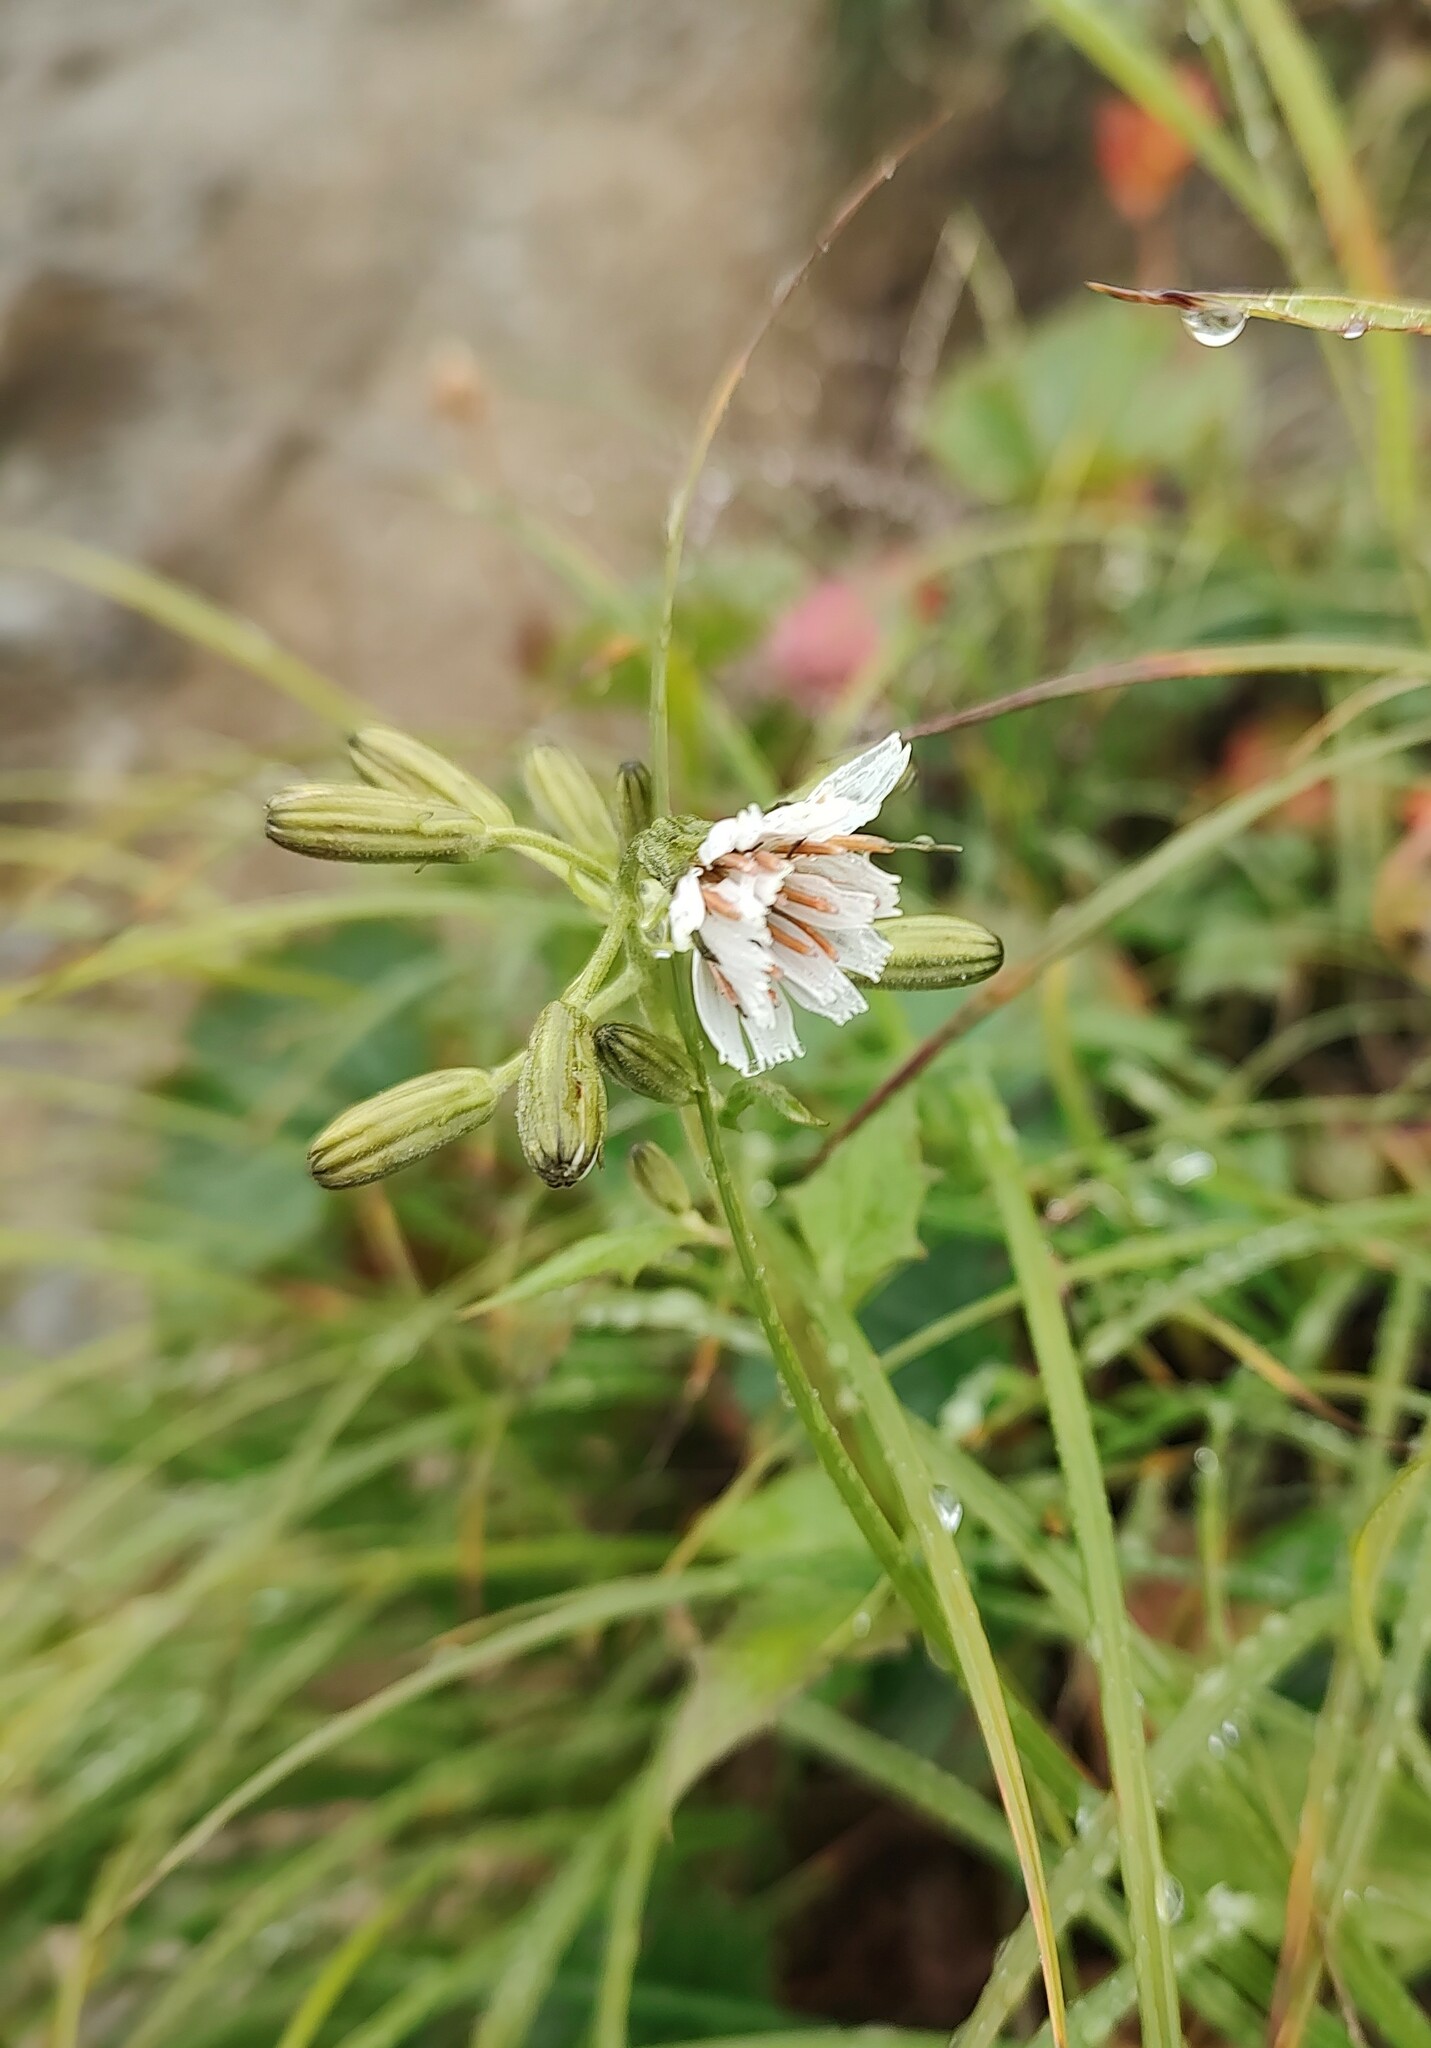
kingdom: Plantae
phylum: Tracheophyta
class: Magnoliopsida
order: Asterales
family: Asteraceae
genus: Nabalus
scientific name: Nabalus hastatus
